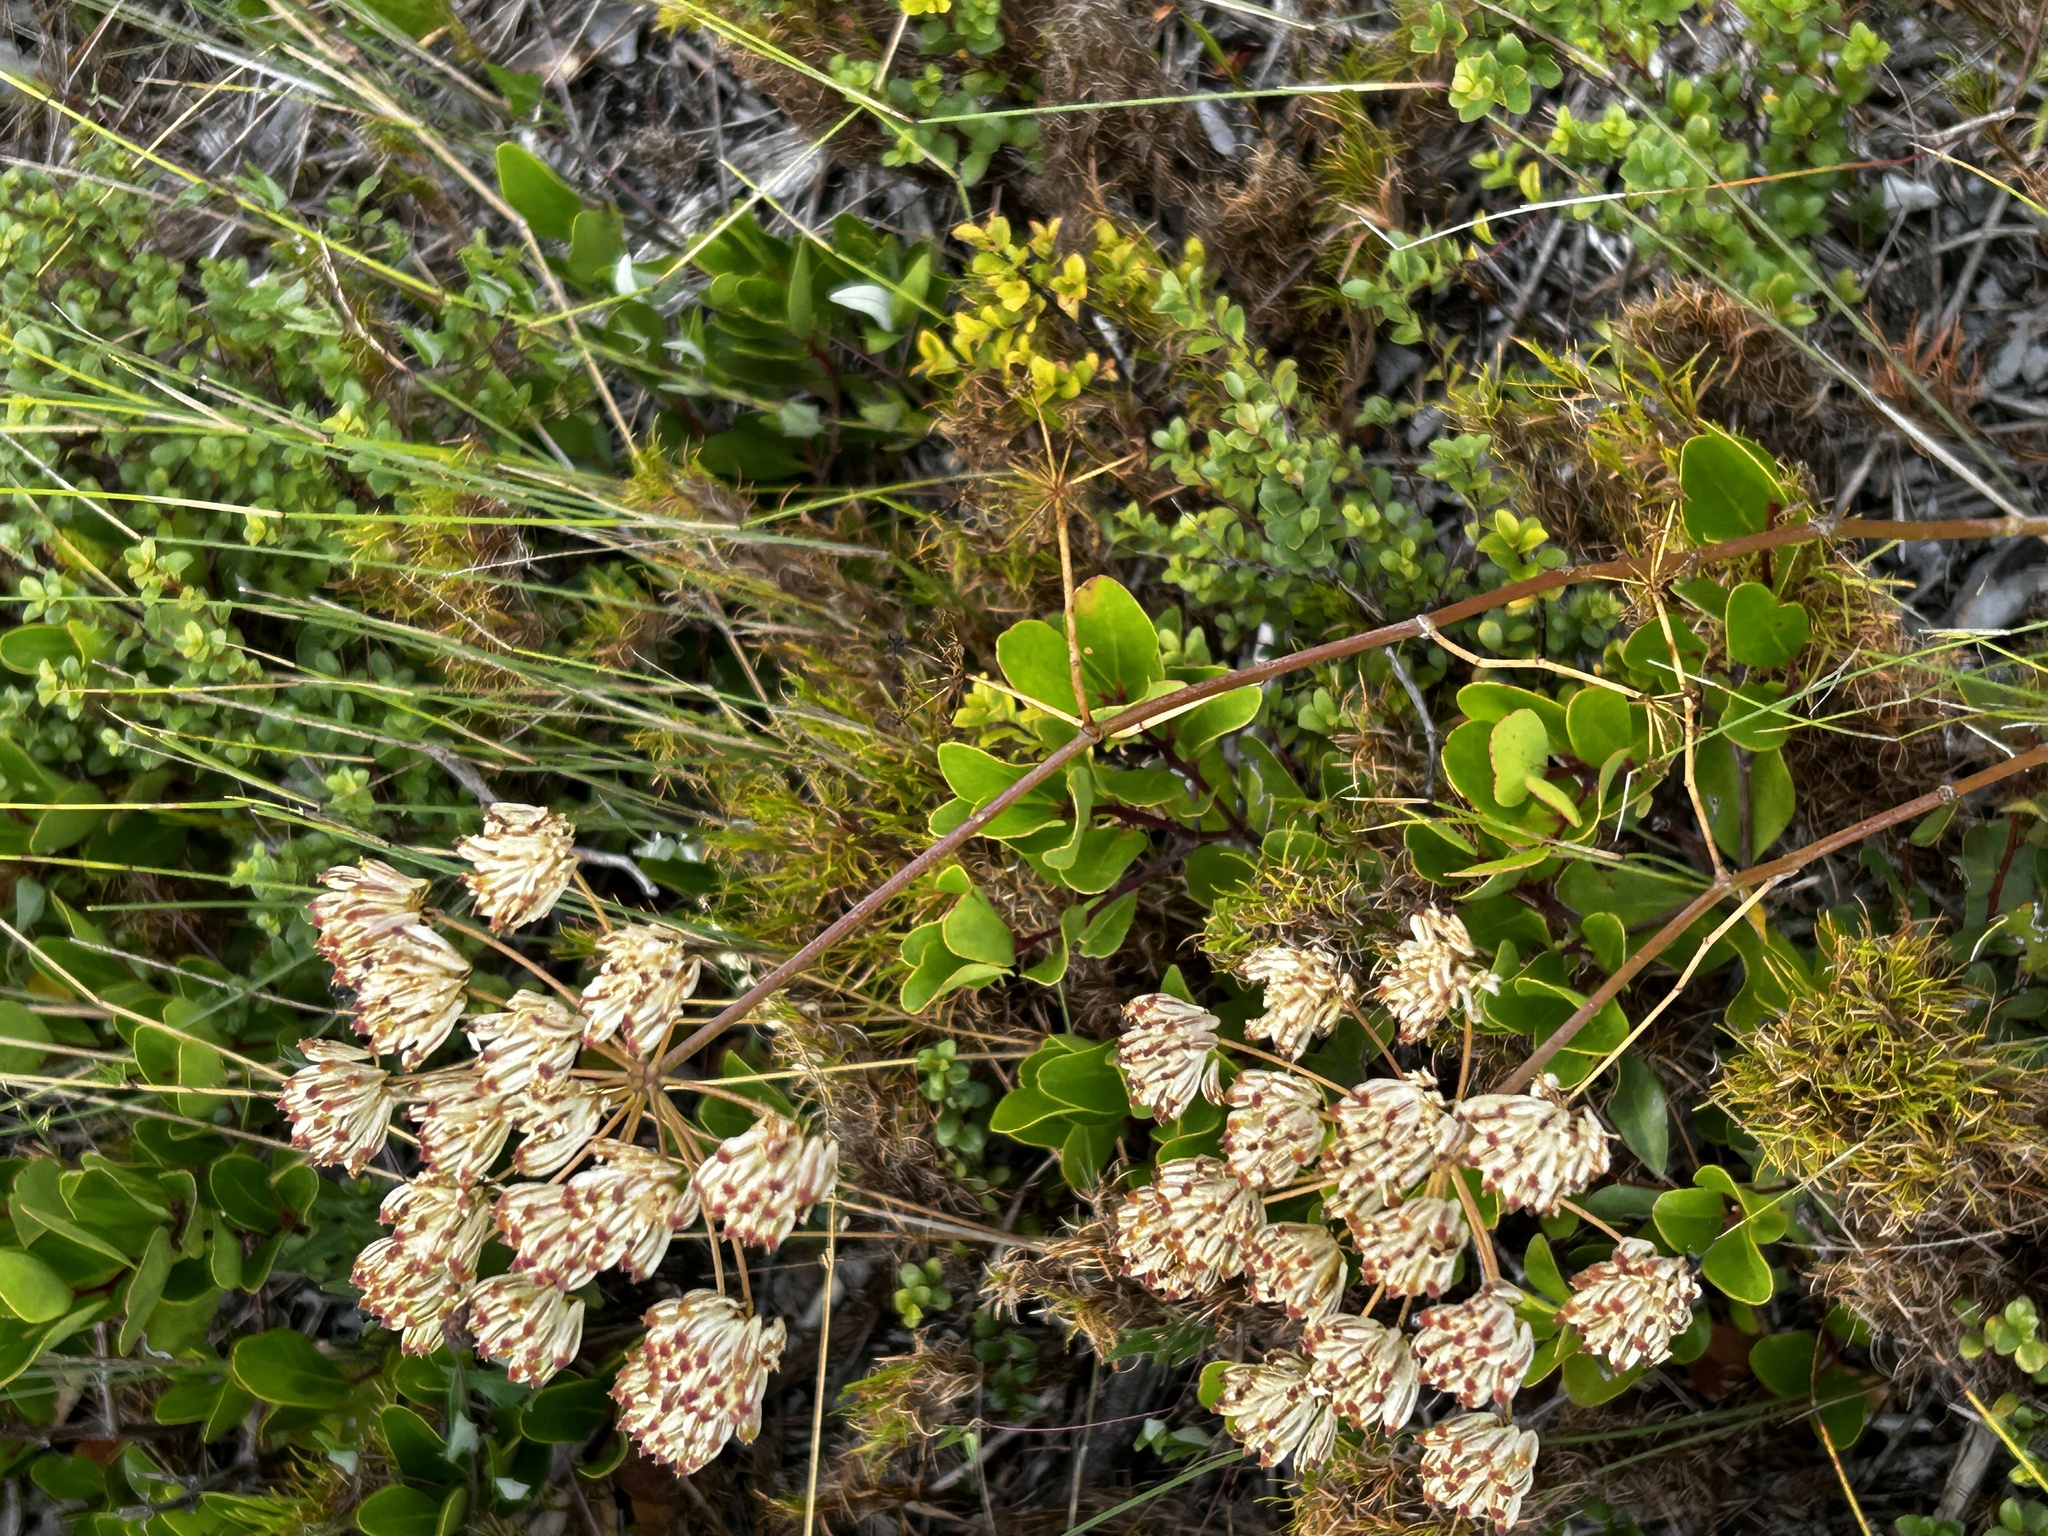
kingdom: Plantae
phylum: Tracheophyta
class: Magnoliopsida
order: Apiales
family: Apiaceae
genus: Annesorhiza
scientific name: Annesorhiza macrocarpa
